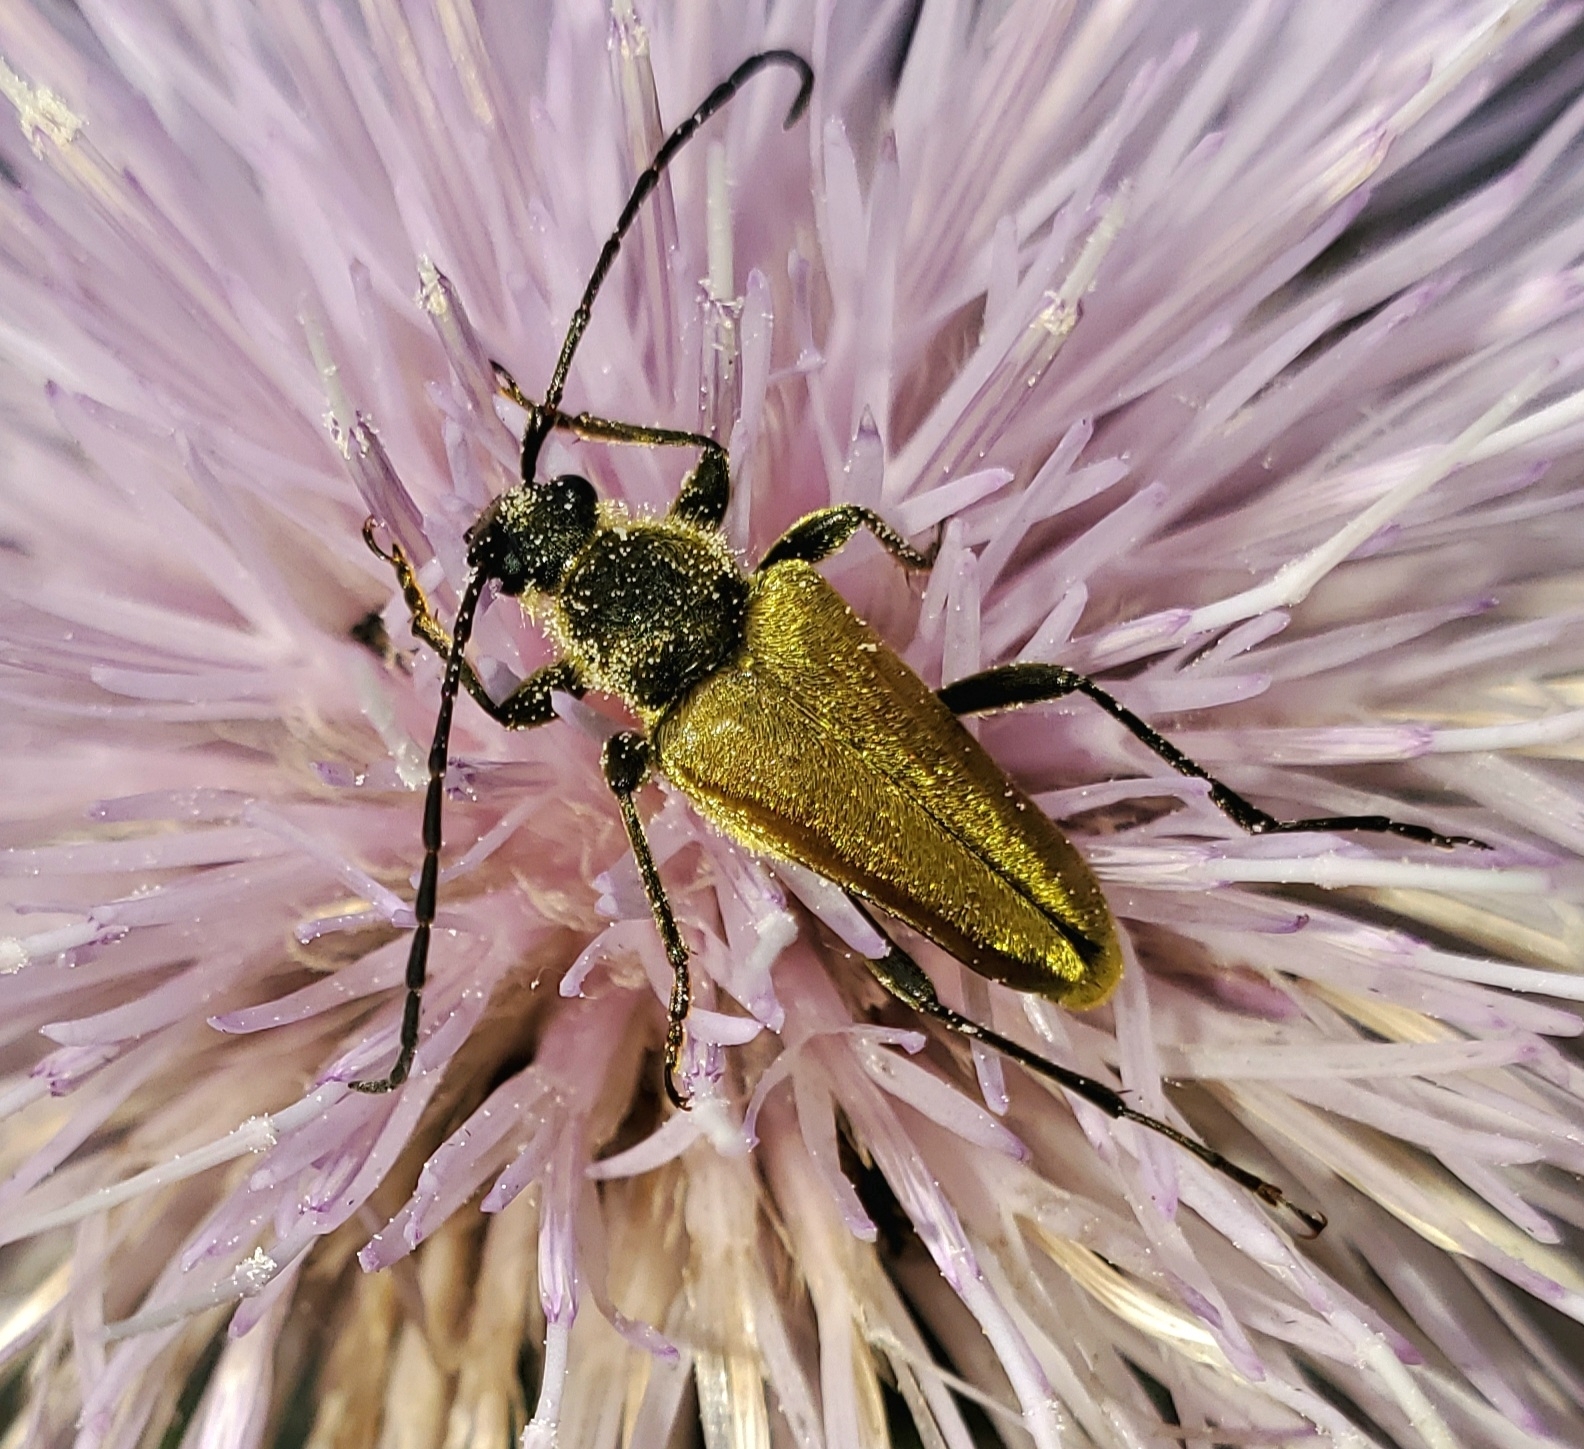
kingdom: Animalia
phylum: Arthropoda
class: Insecta
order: Coleoptera
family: Cerambycidae
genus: Cosmosalia
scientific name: Cosmosalia chrysocoma
